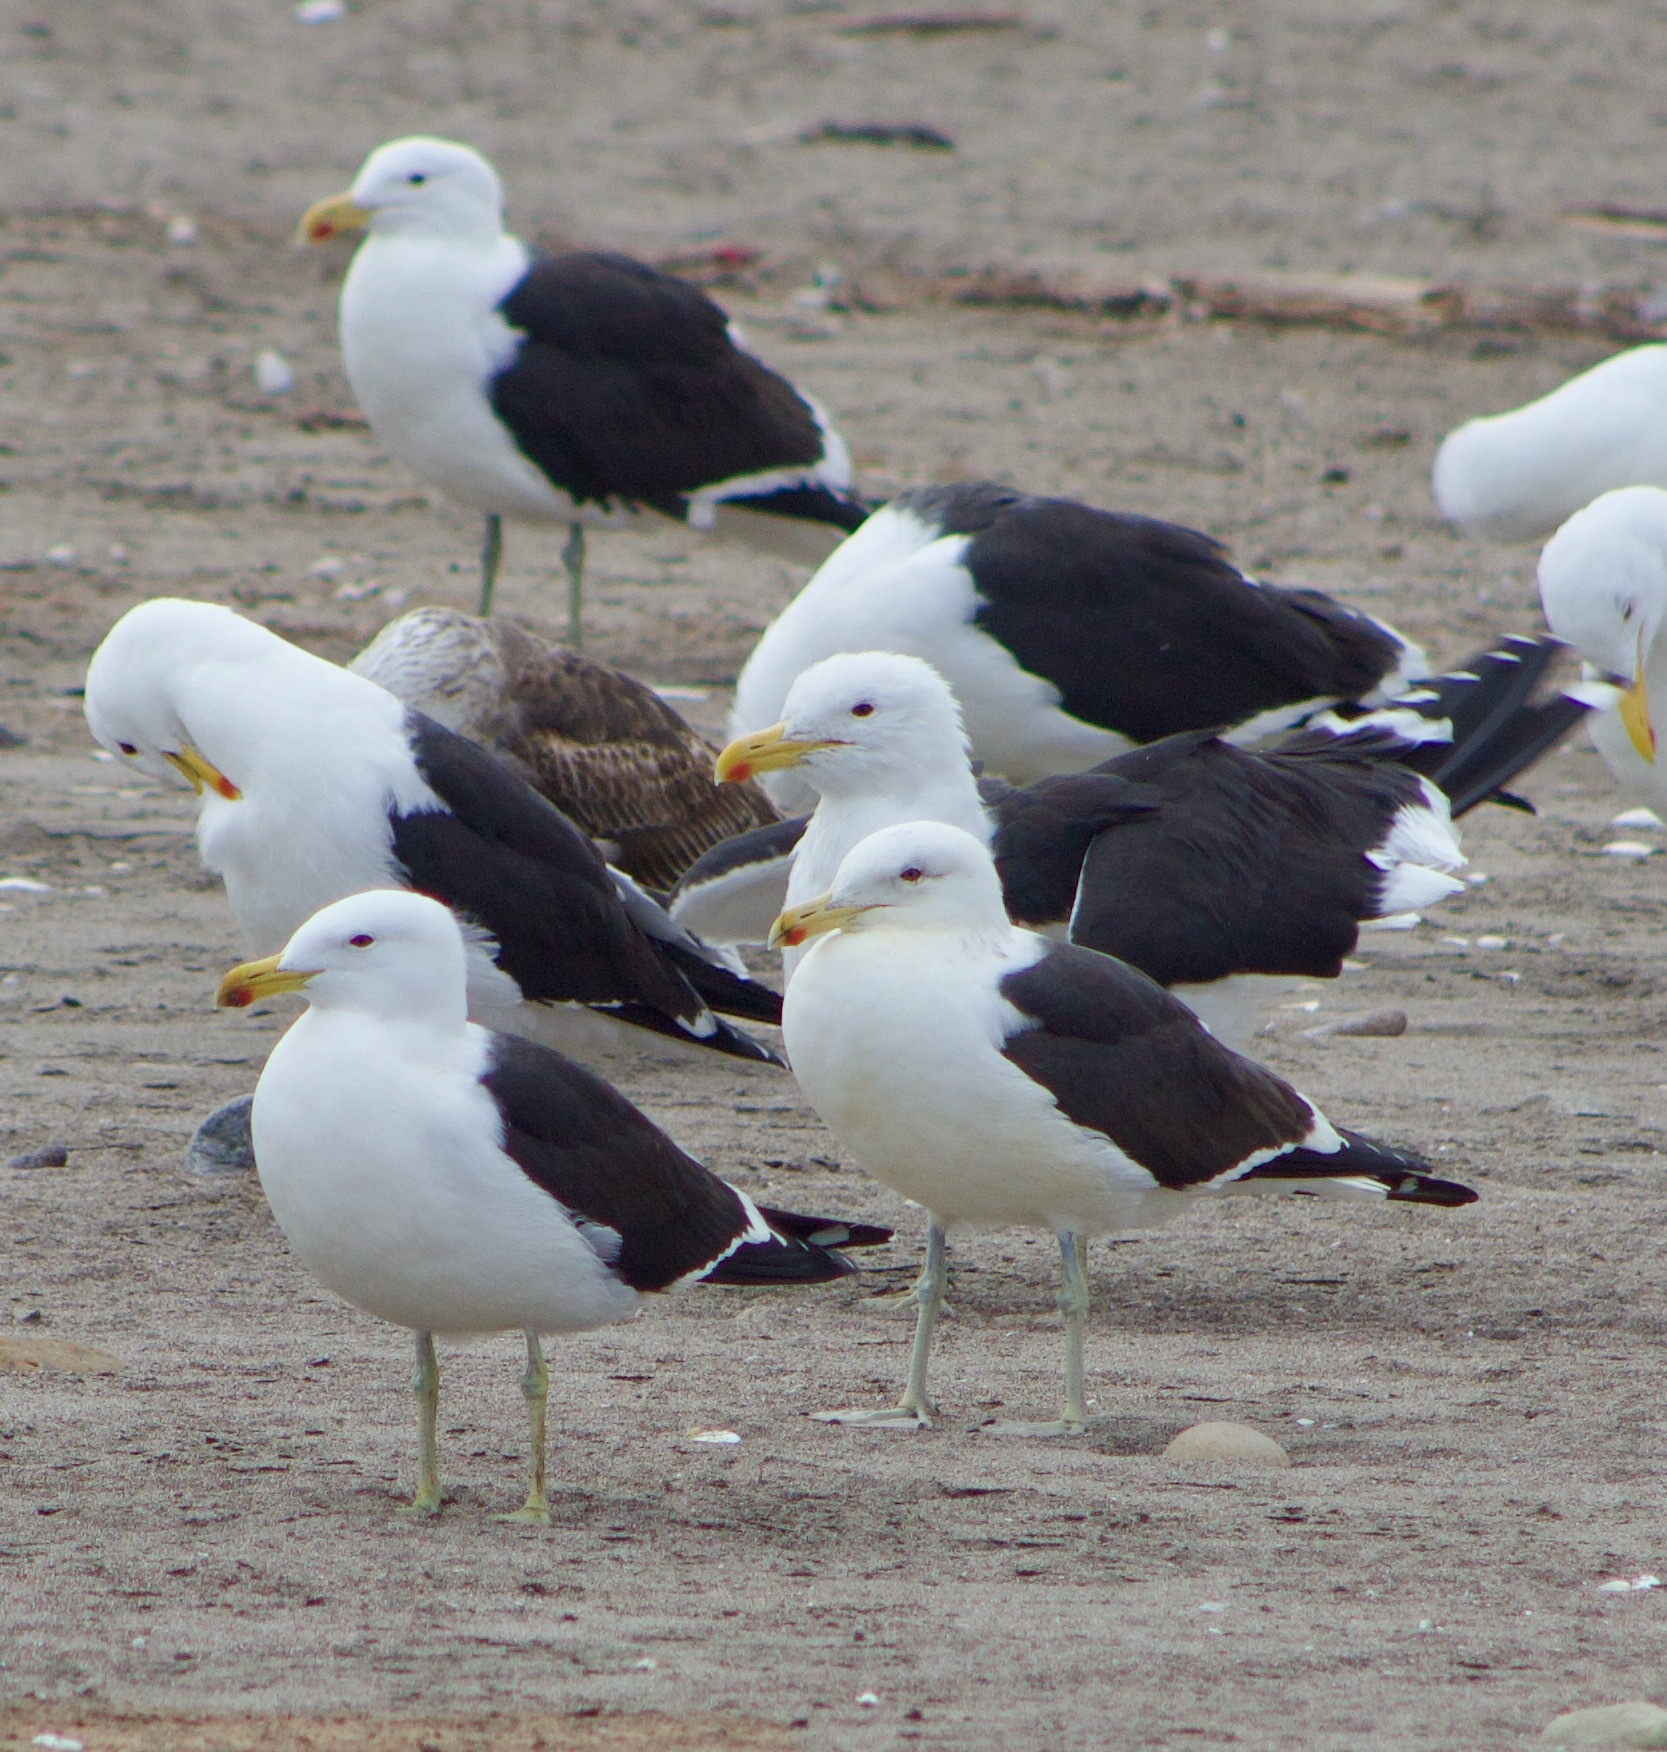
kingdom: Animalia
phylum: Chordata
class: Aves
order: Charadriiformes
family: Laridae
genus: Larus
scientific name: Larus dominicanus
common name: Kelp gull
